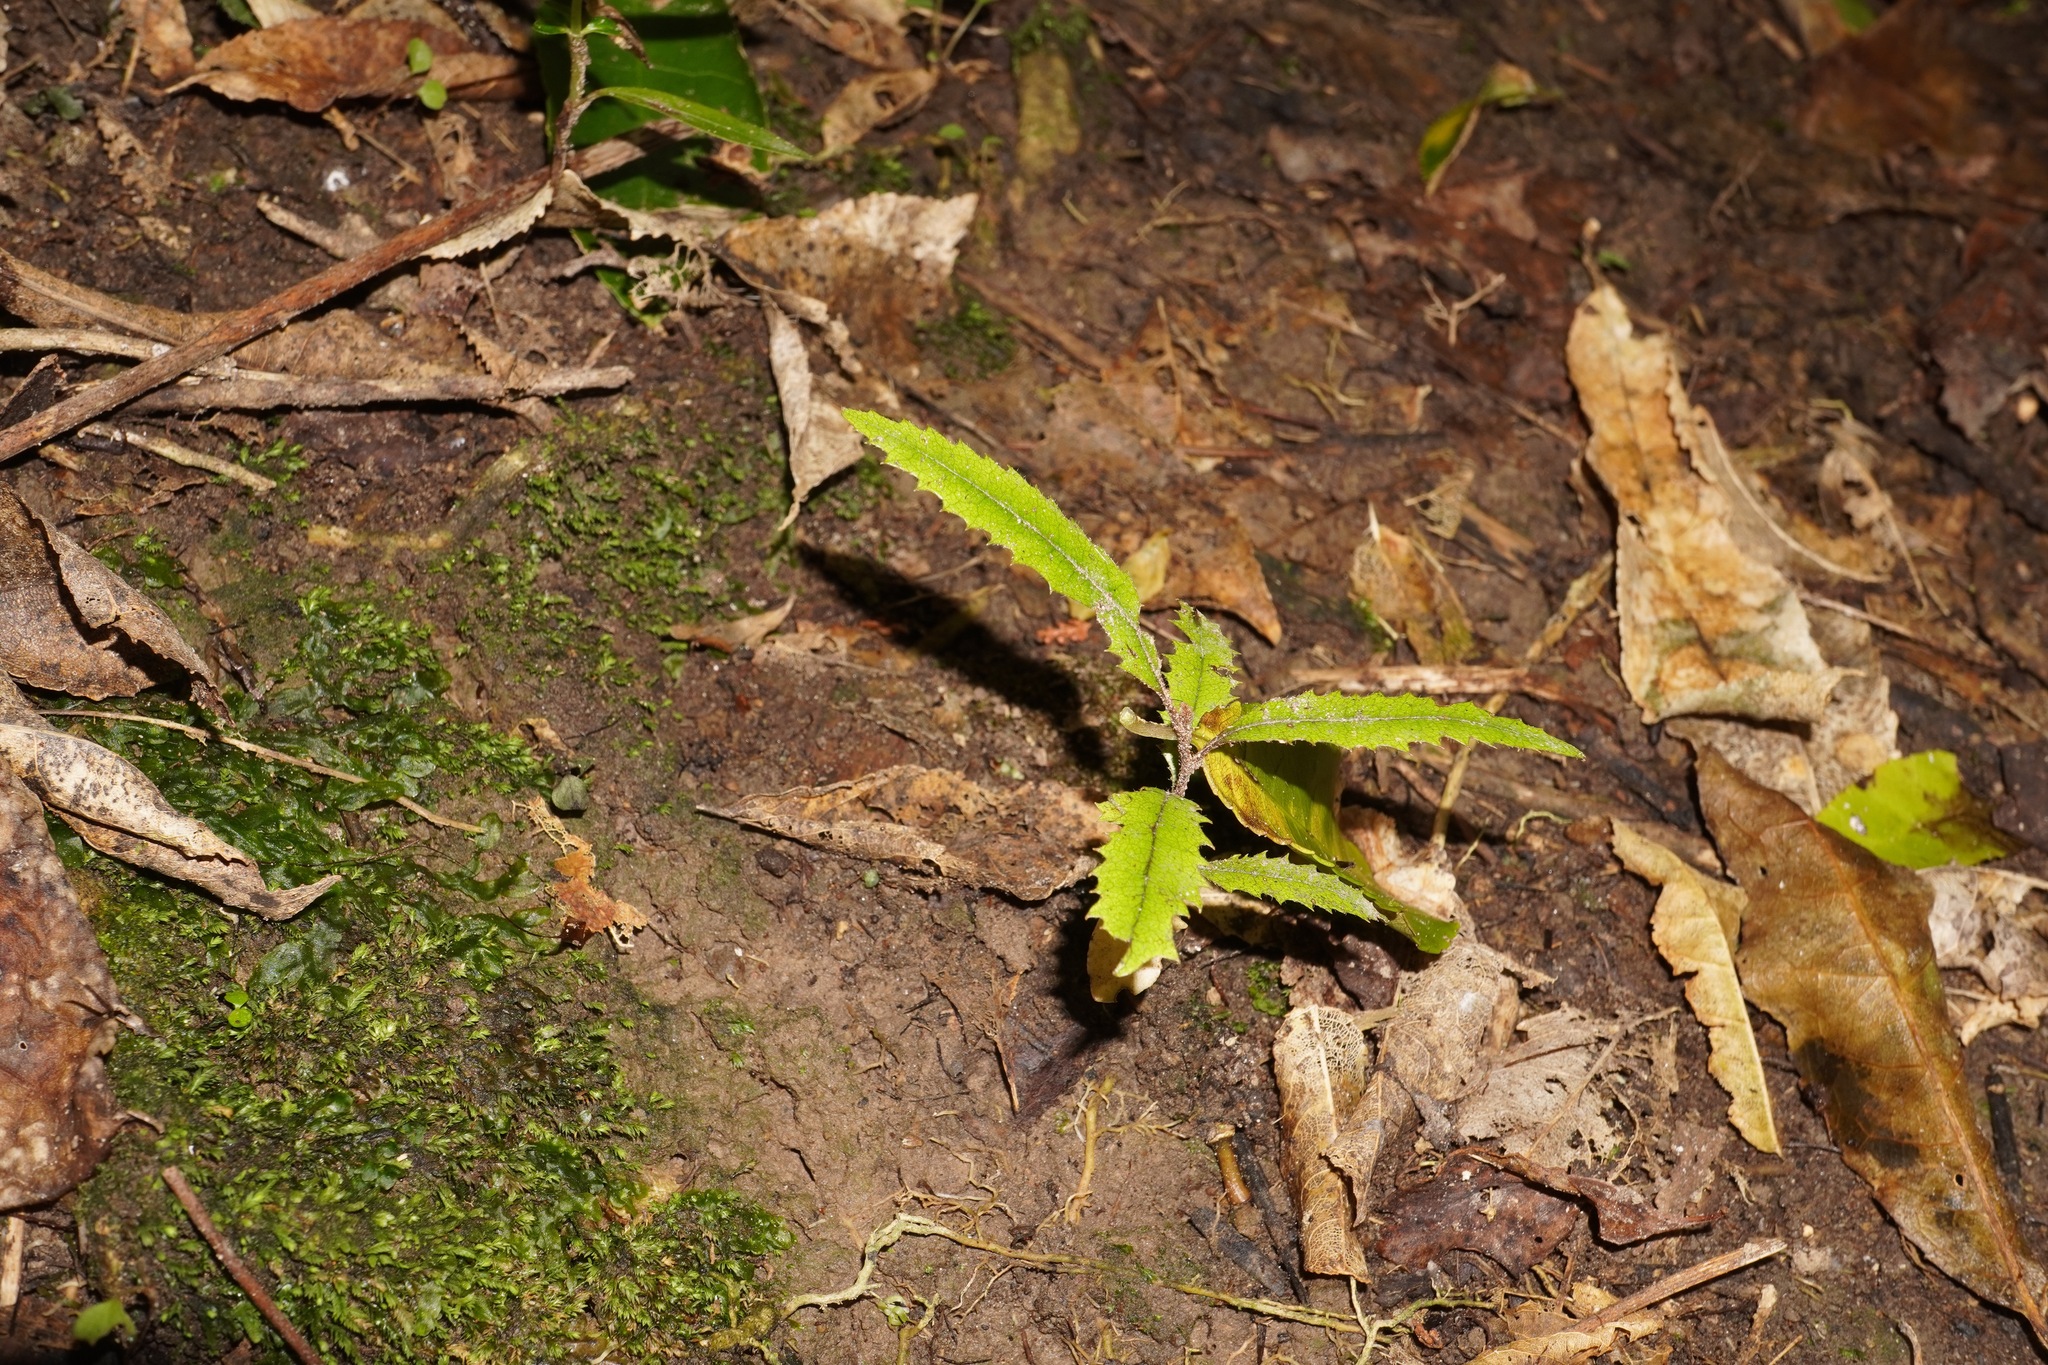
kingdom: Plantae
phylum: Tracheophyta
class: Magnoliopsida
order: Proteales
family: Proteaceae
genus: Knightia
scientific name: Knightia excelsa
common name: New zealand-honeysuckle
